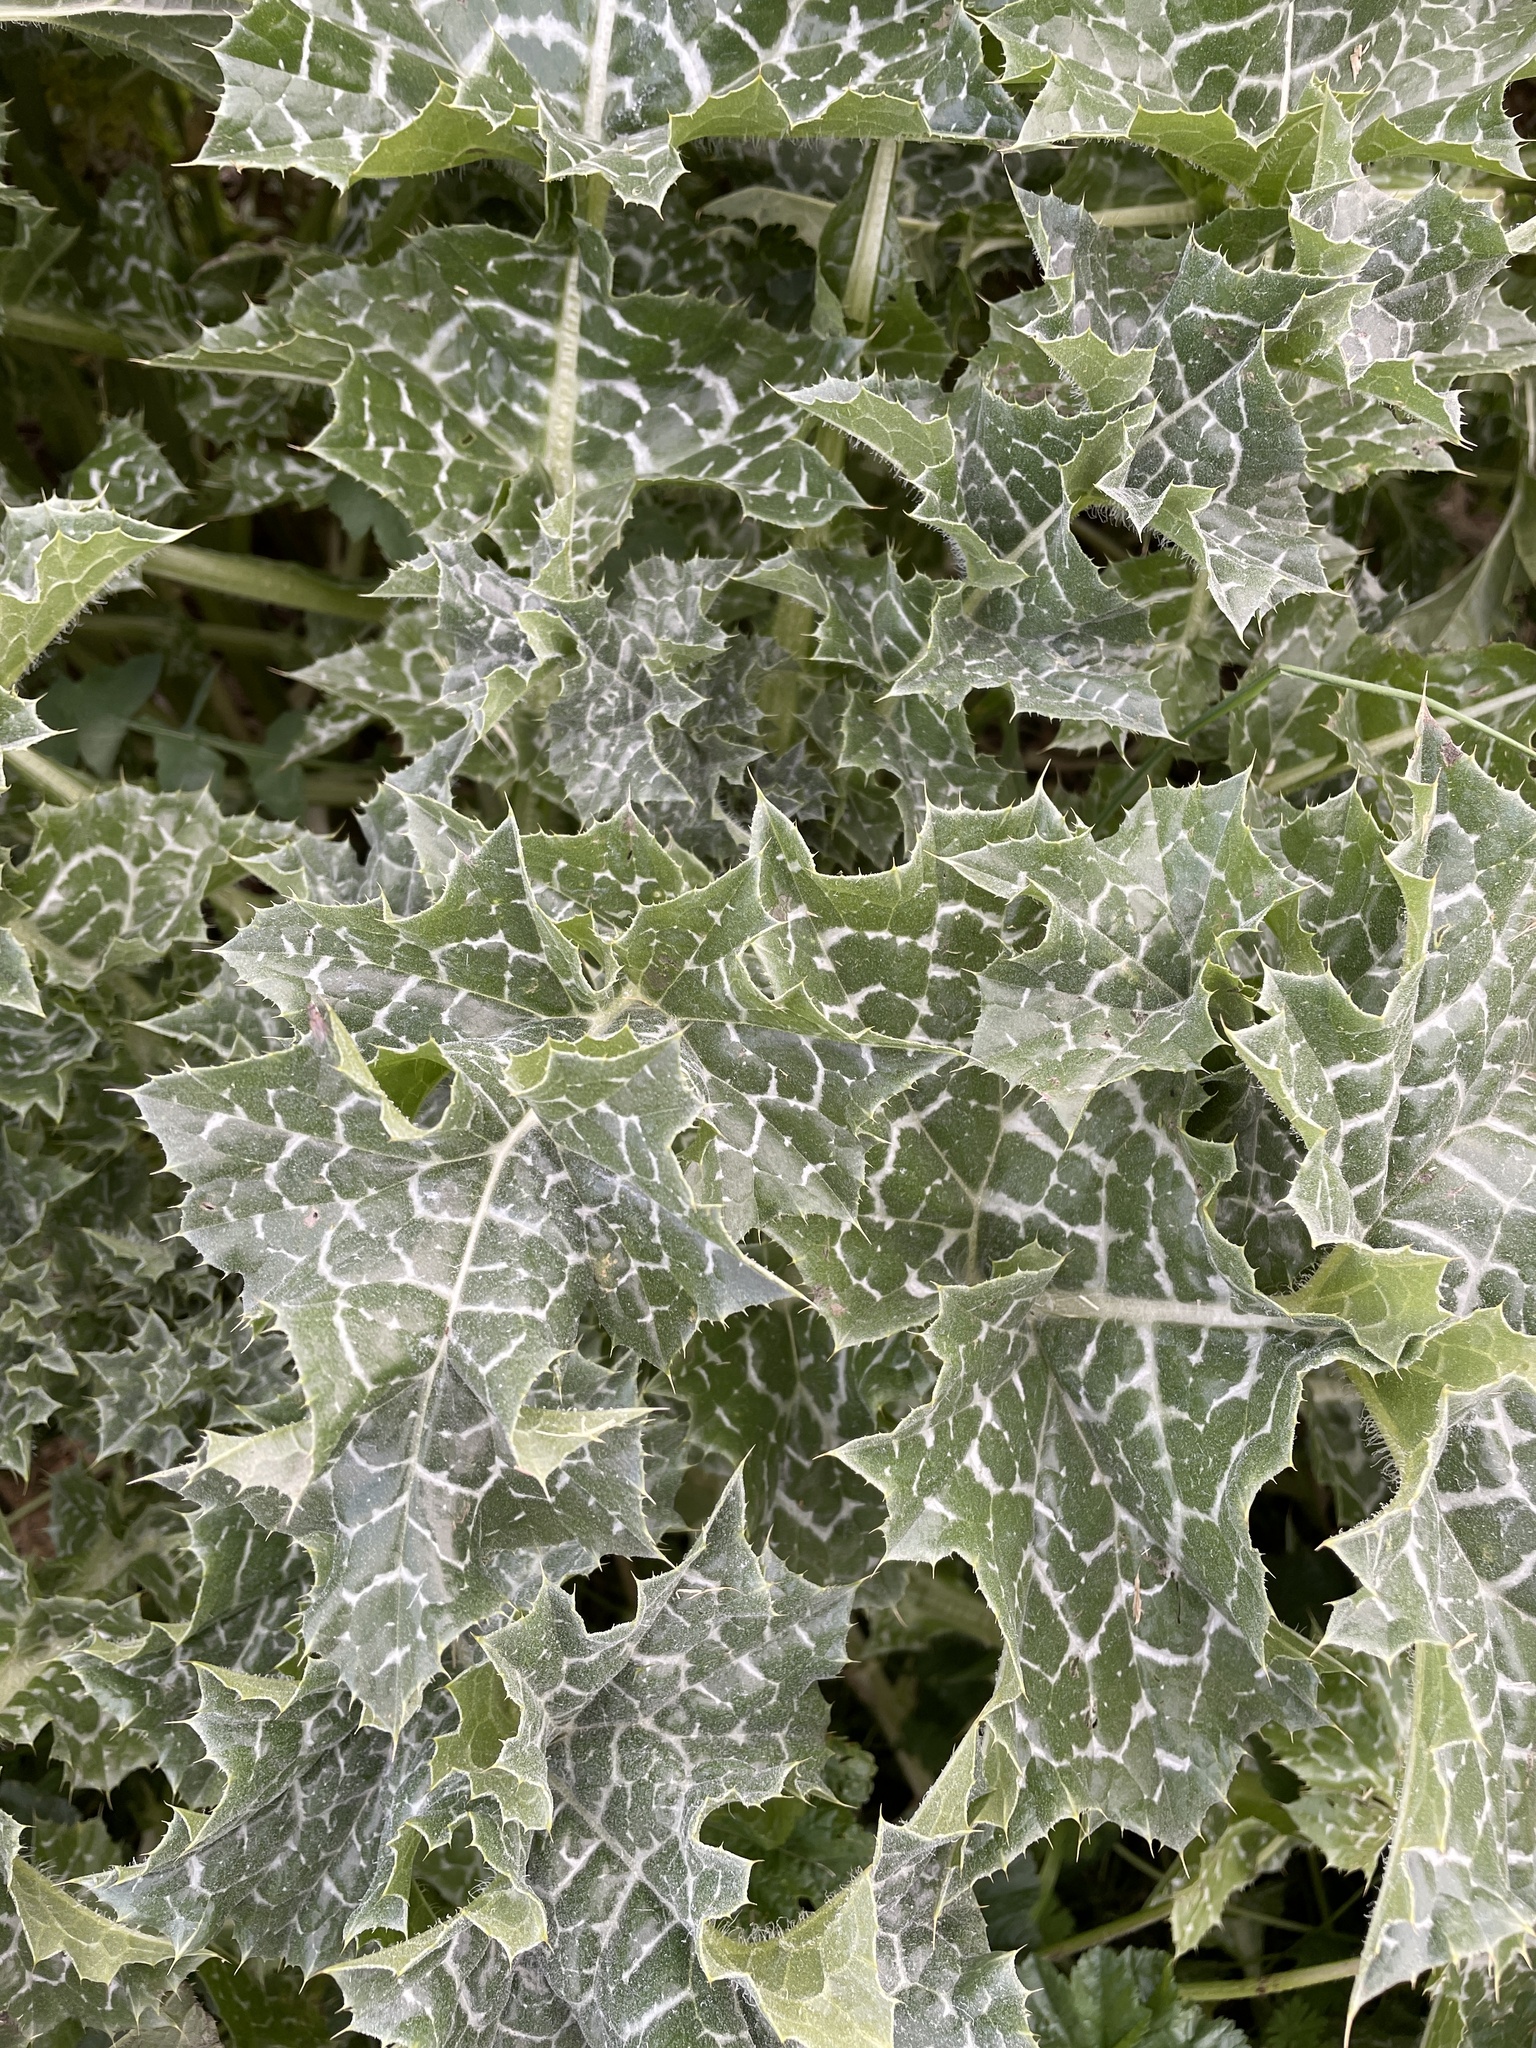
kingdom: Plantae
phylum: Tracheophyta
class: Magnoliopsida
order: Asterales
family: Asteraceae
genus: Silybum
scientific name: Silybum marianum
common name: Milk thistle
